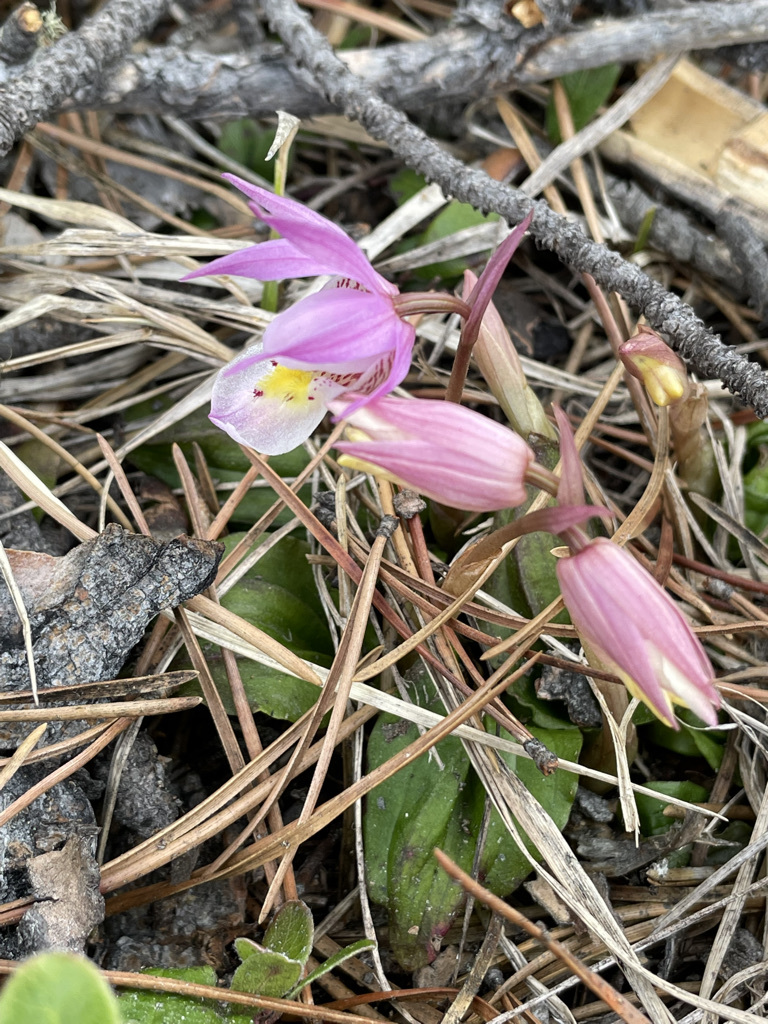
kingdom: Plantae
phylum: Tracheophyta
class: Liliopsida
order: Asparagales
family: Orchidaceae
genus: Calypso
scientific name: Calypso bulbosa
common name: Calypso
